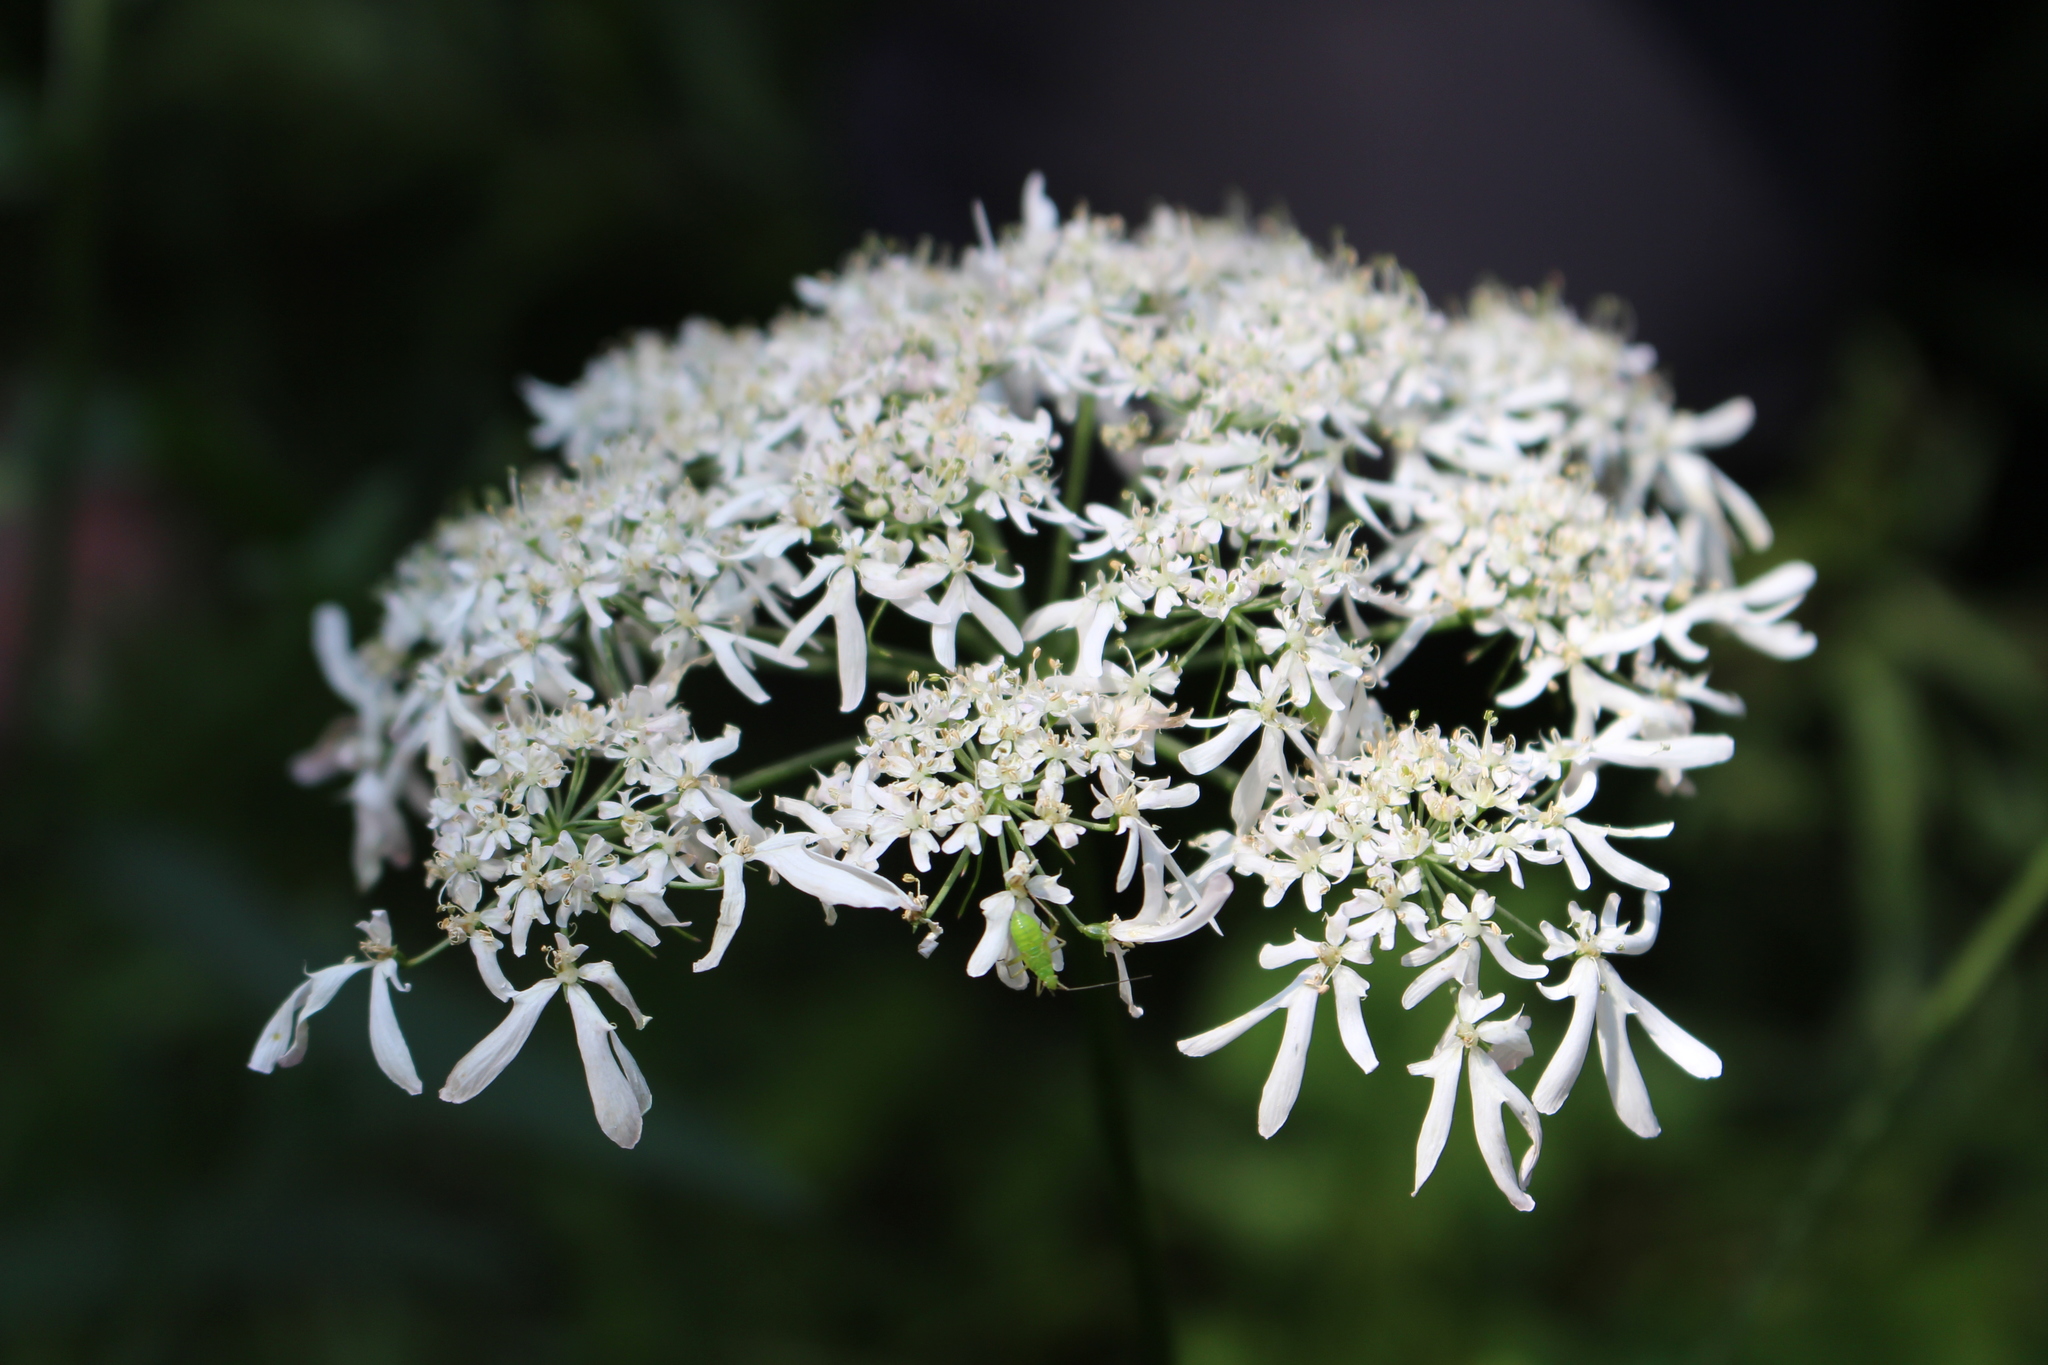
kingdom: Plantae
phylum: Tracheophyta
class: Magnoliopsida
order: Apiales
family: Apiaceae
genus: Heracleum
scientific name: Heracleum austriacum
